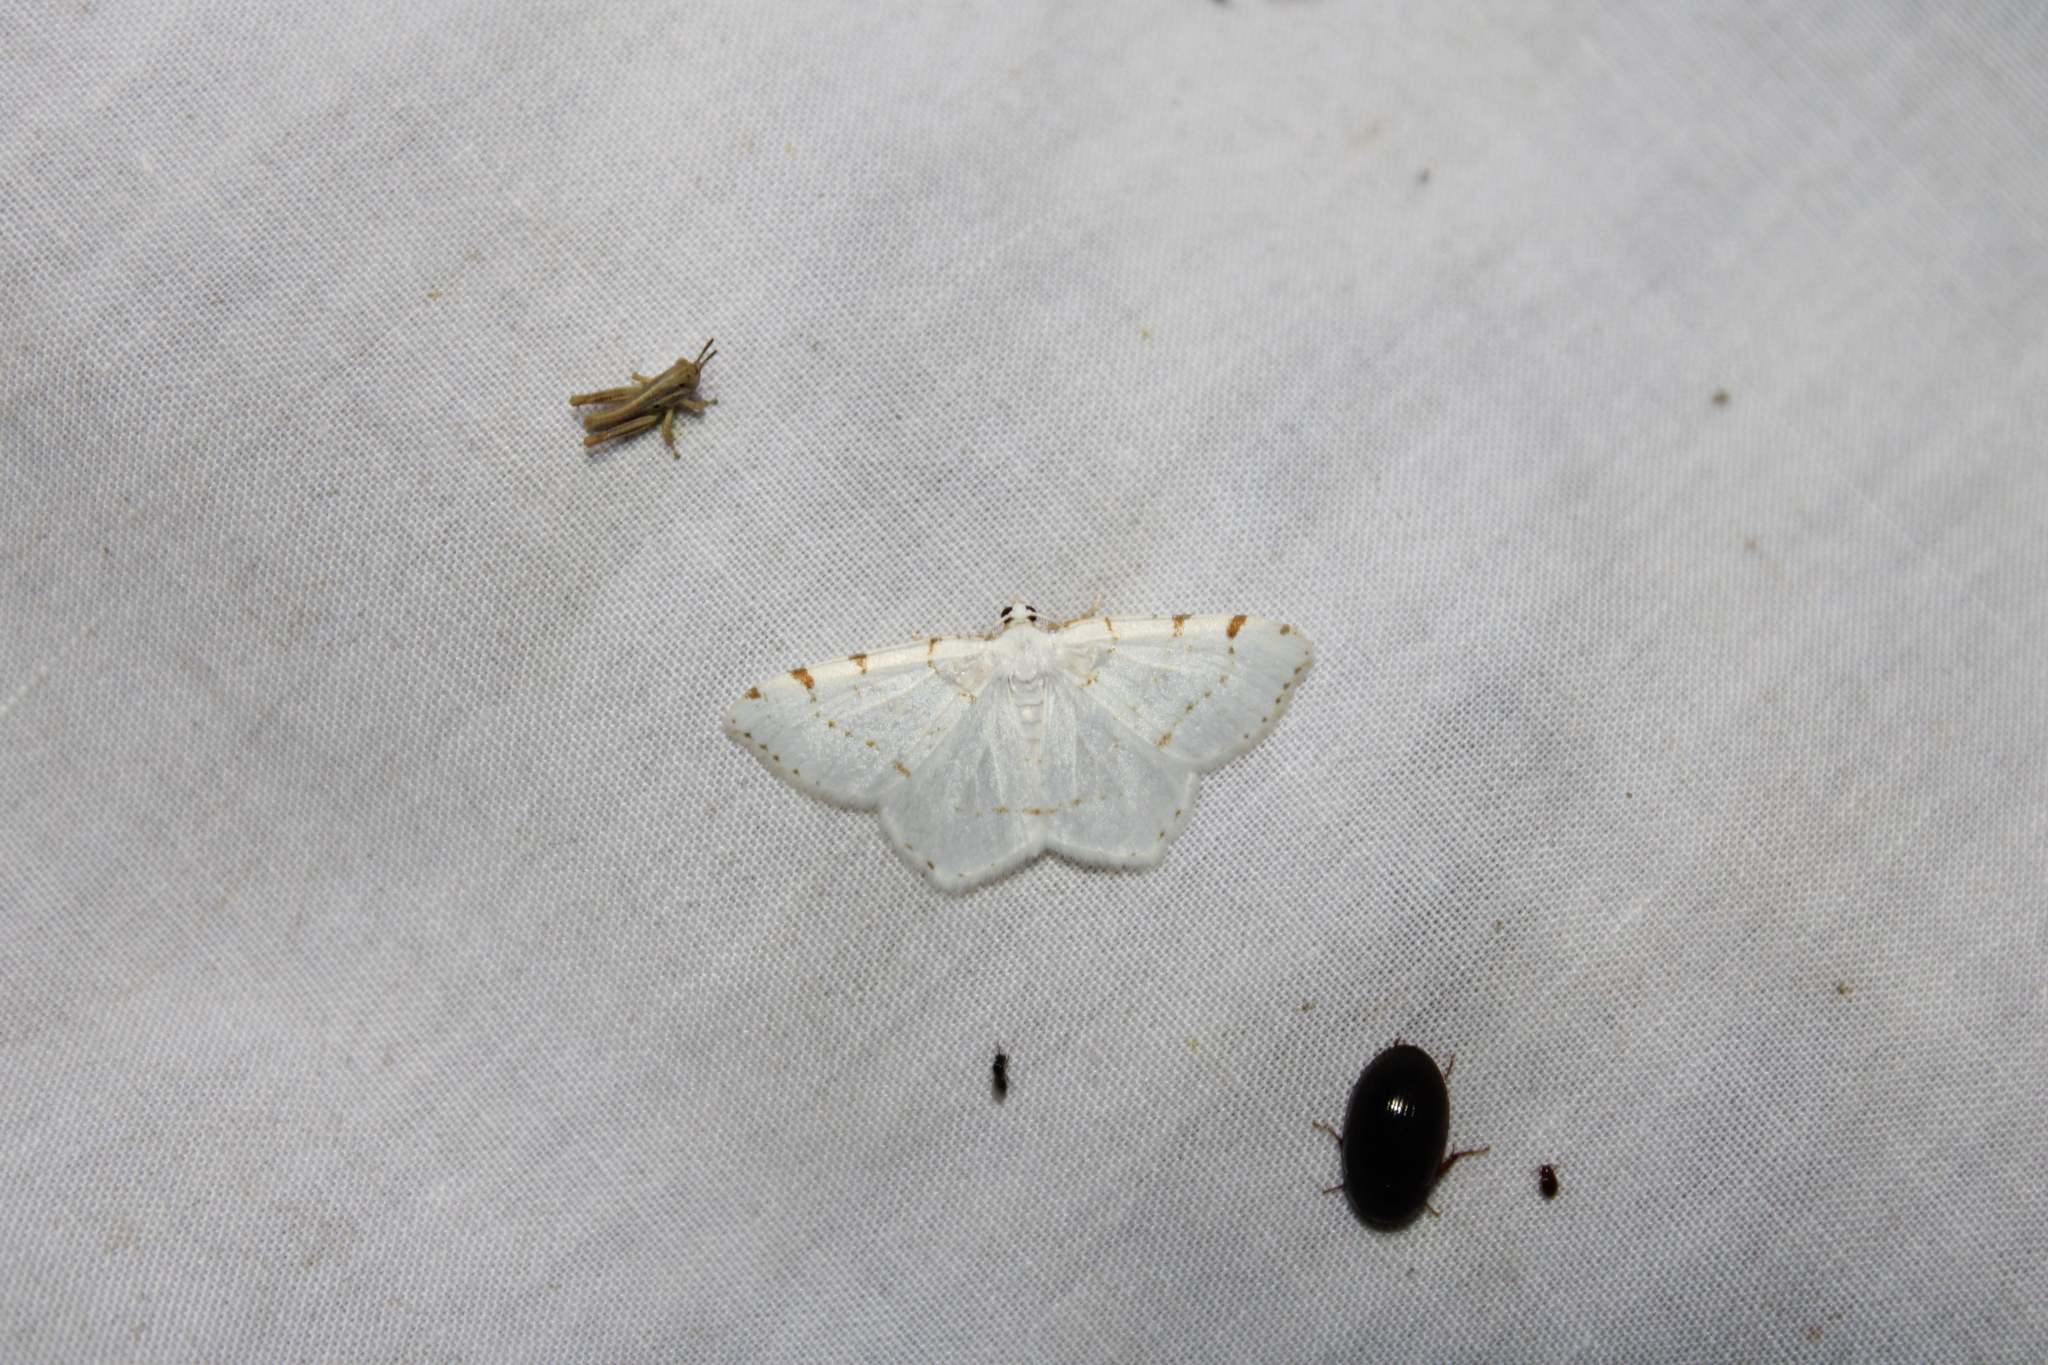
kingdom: Animalia
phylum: Arthropoda
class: Insecta
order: Lepidoptera
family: Geometridae
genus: Macaria
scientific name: Macaria pustularia
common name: Lesser maple spanworm moth
